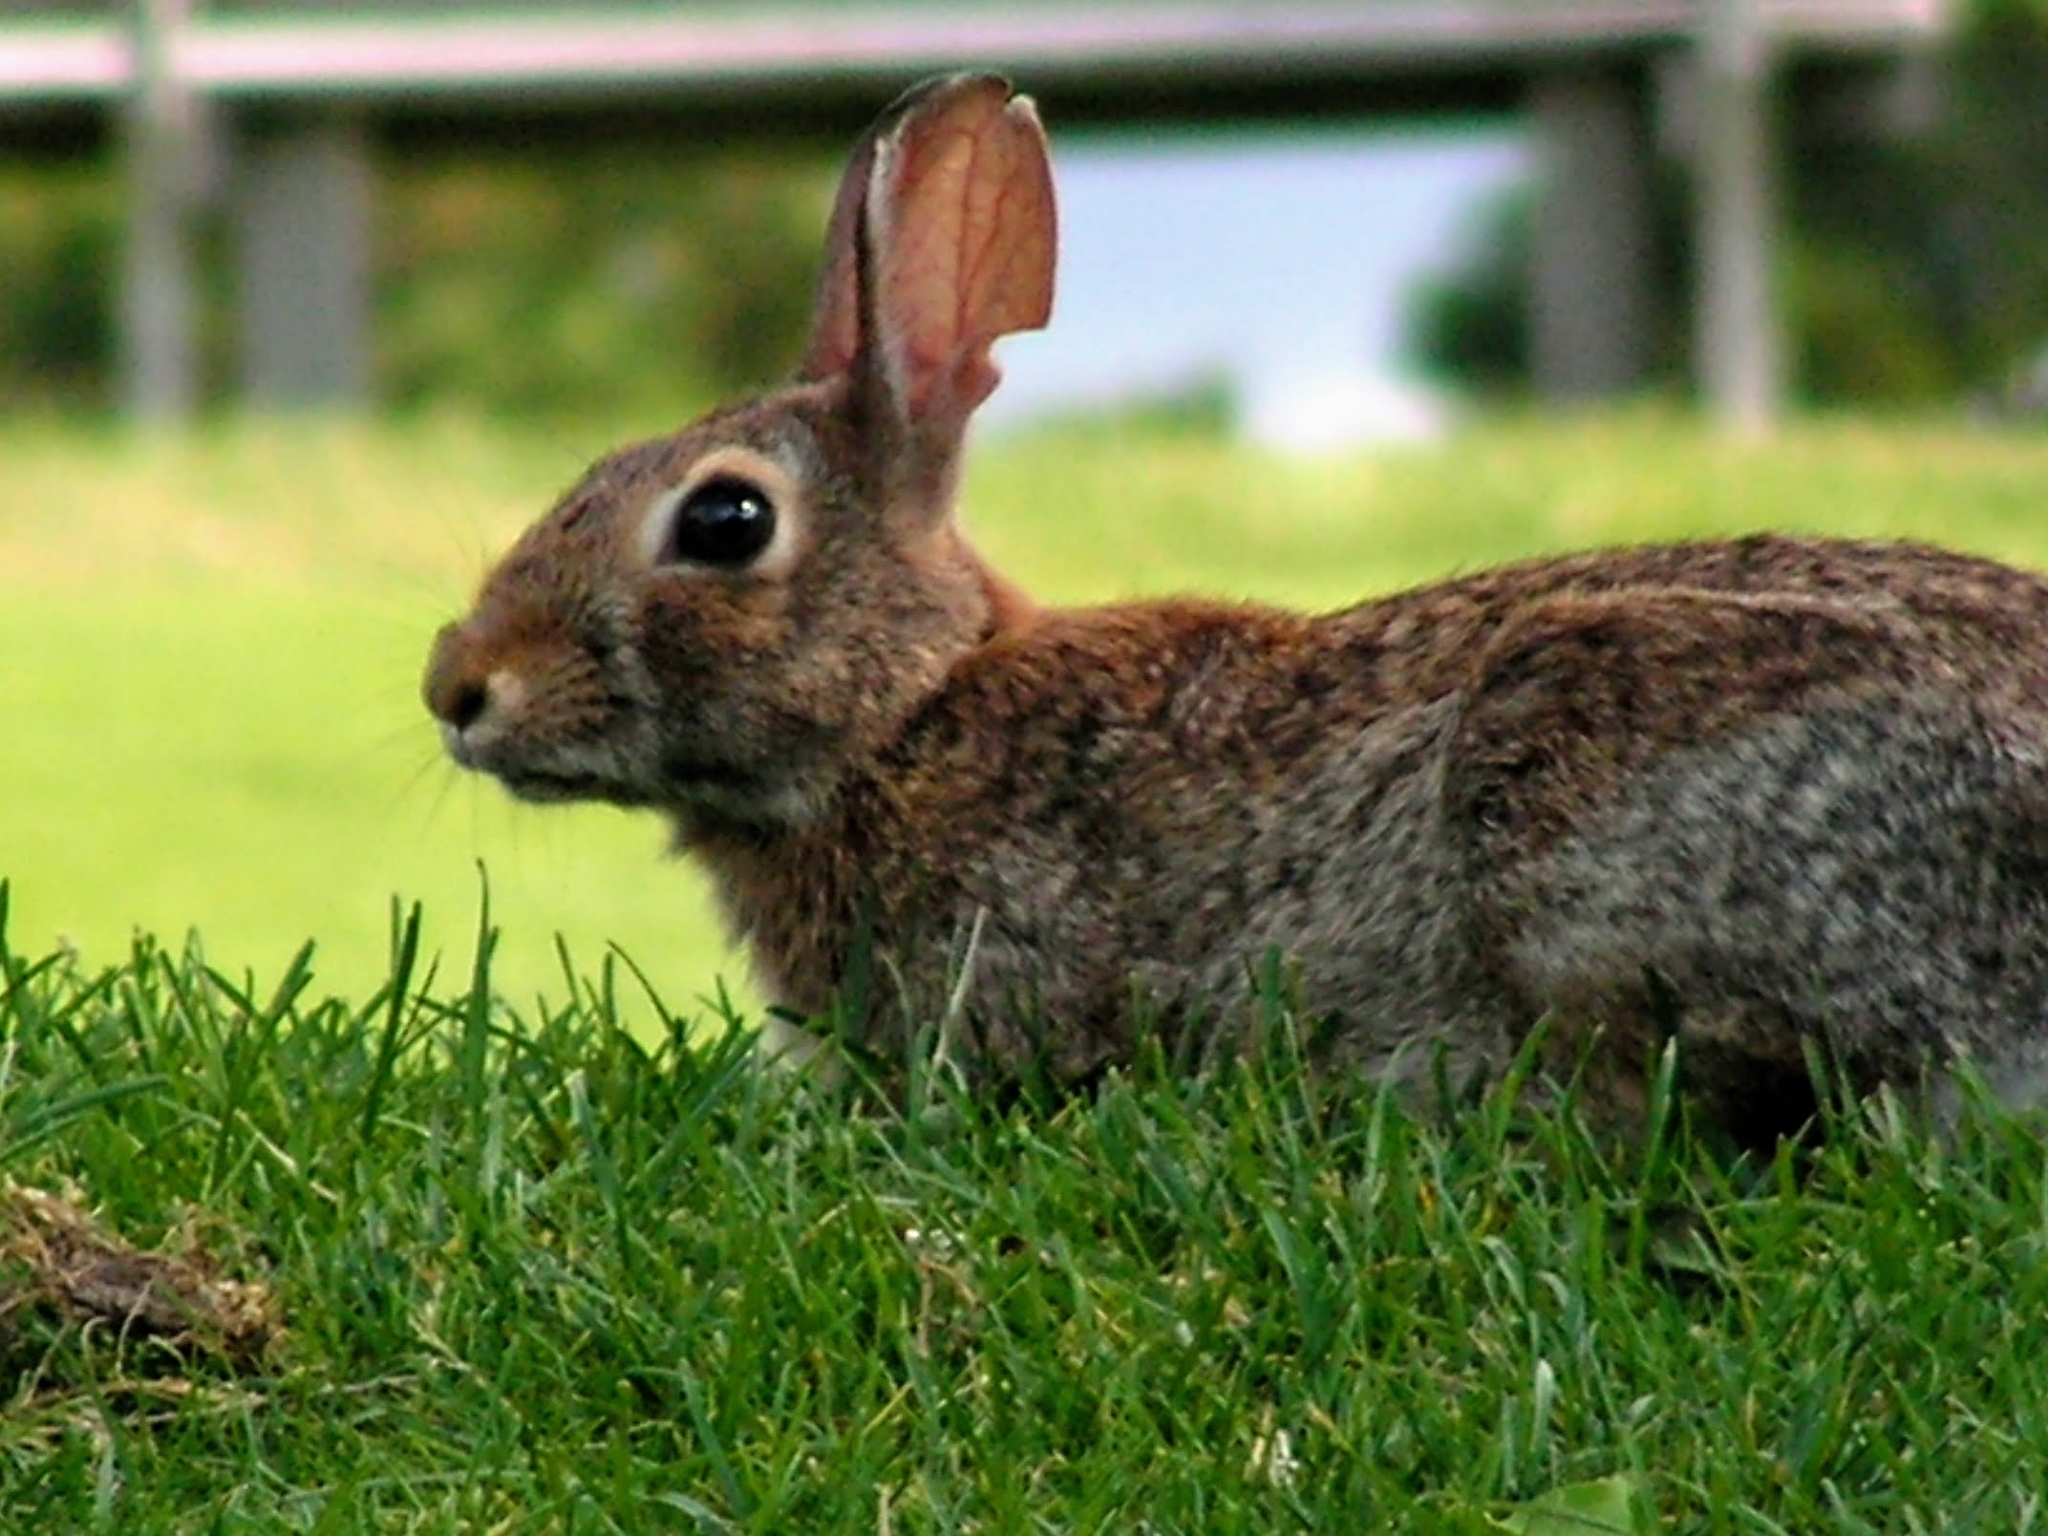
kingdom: Animalia
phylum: Chordata
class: Mammalia
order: Lagomorpha
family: Leporidae
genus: Sylvilagus
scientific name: Sylvilagus floridanus
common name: Eastern cottontail
